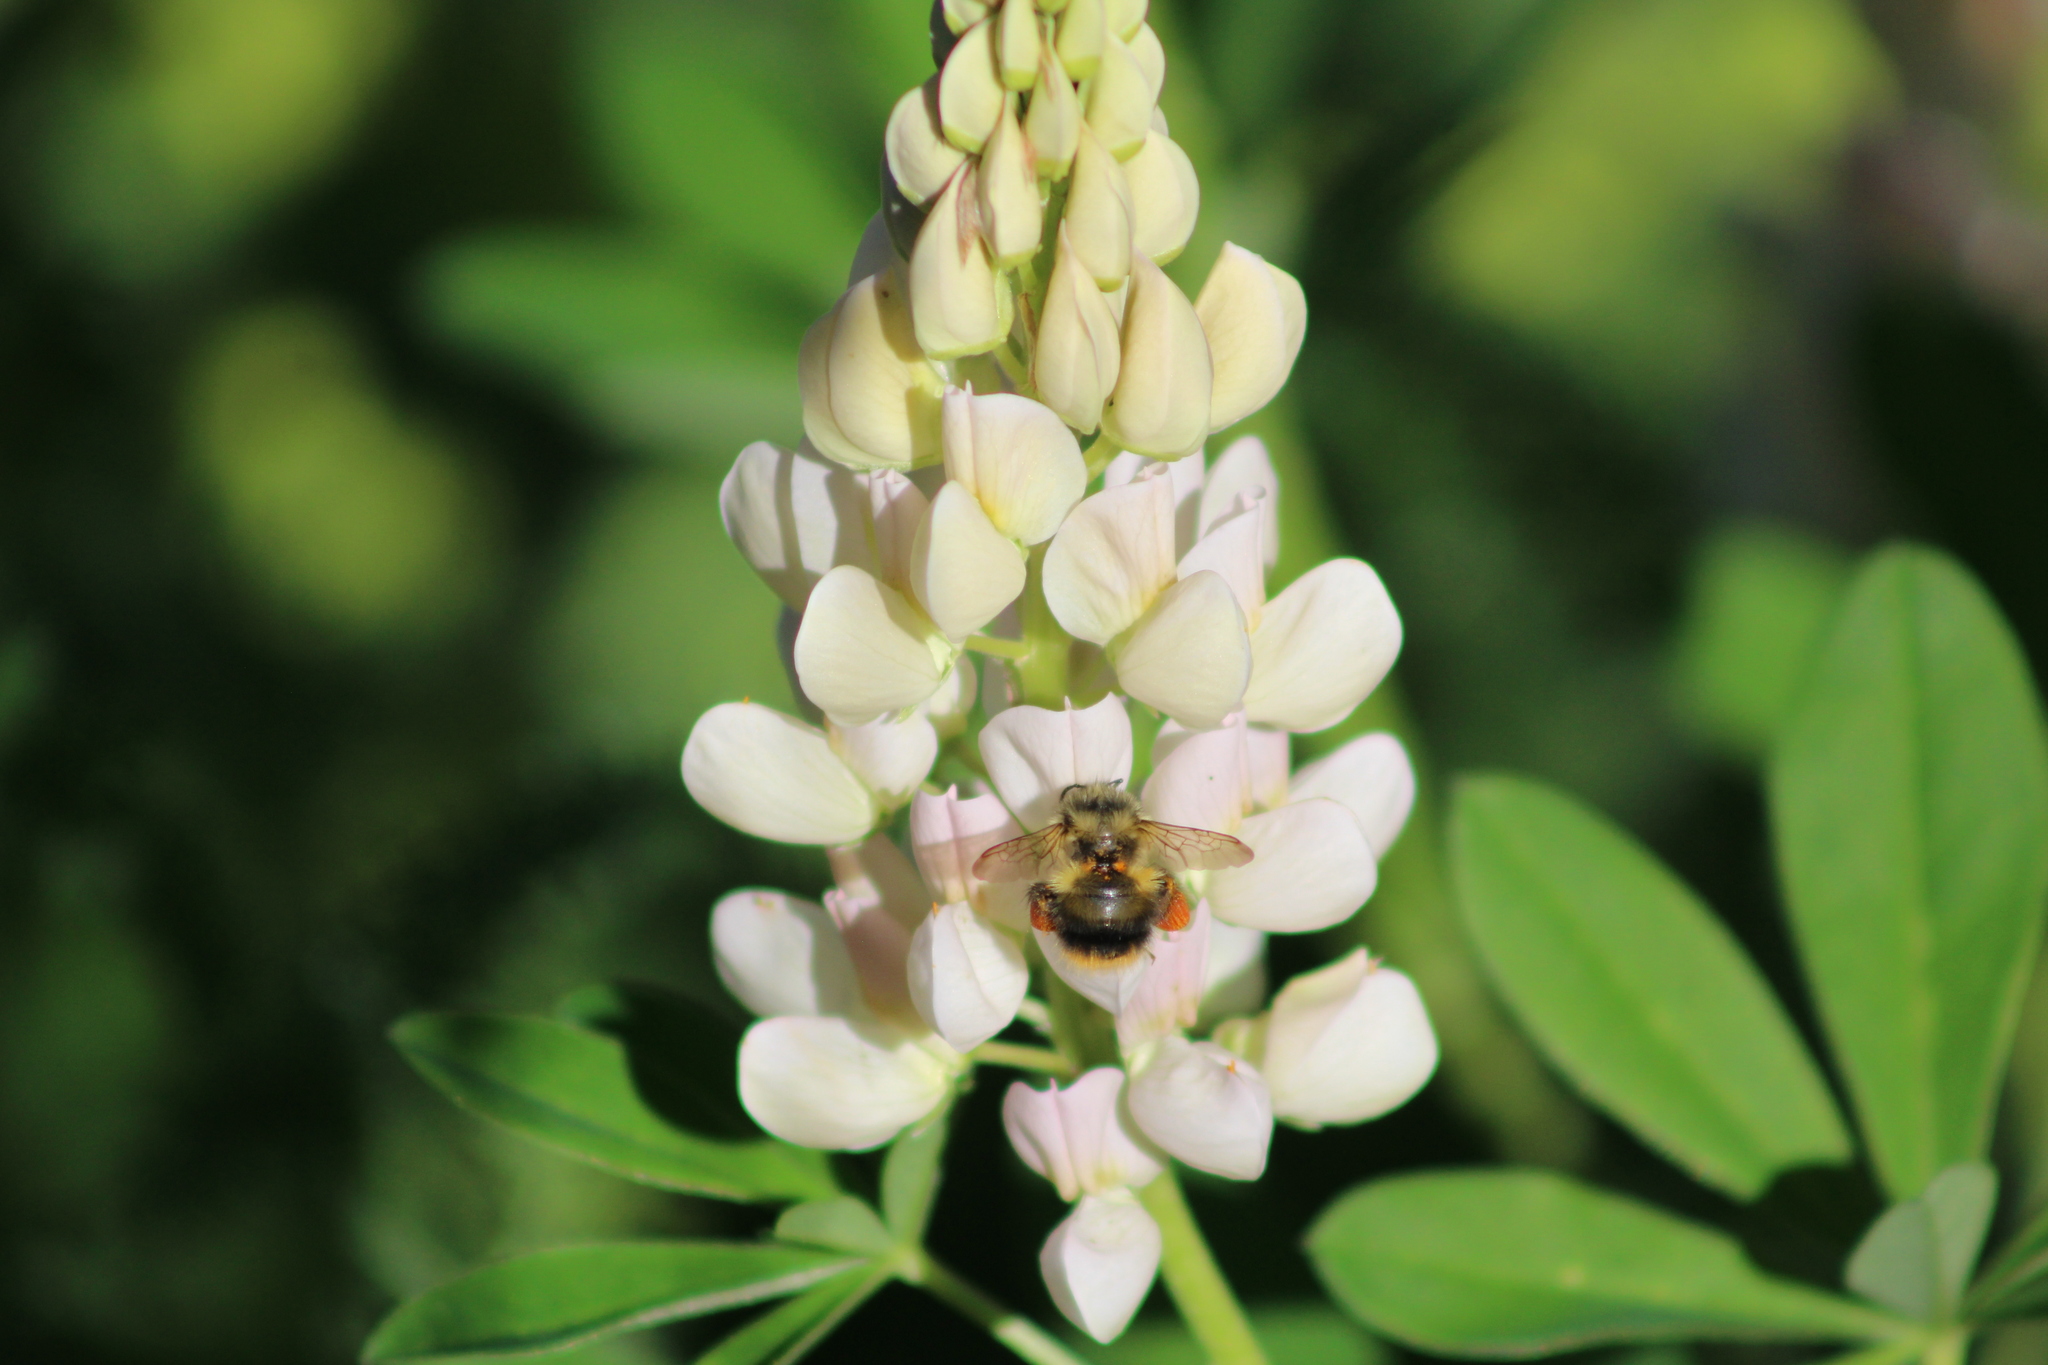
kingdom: Animalia
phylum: Arthropoda
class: Insecta
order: Hymenoptera
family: Apidae
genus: Bombus
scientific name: Bombus mixtus
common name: Fuzzy-horned bumble bee
